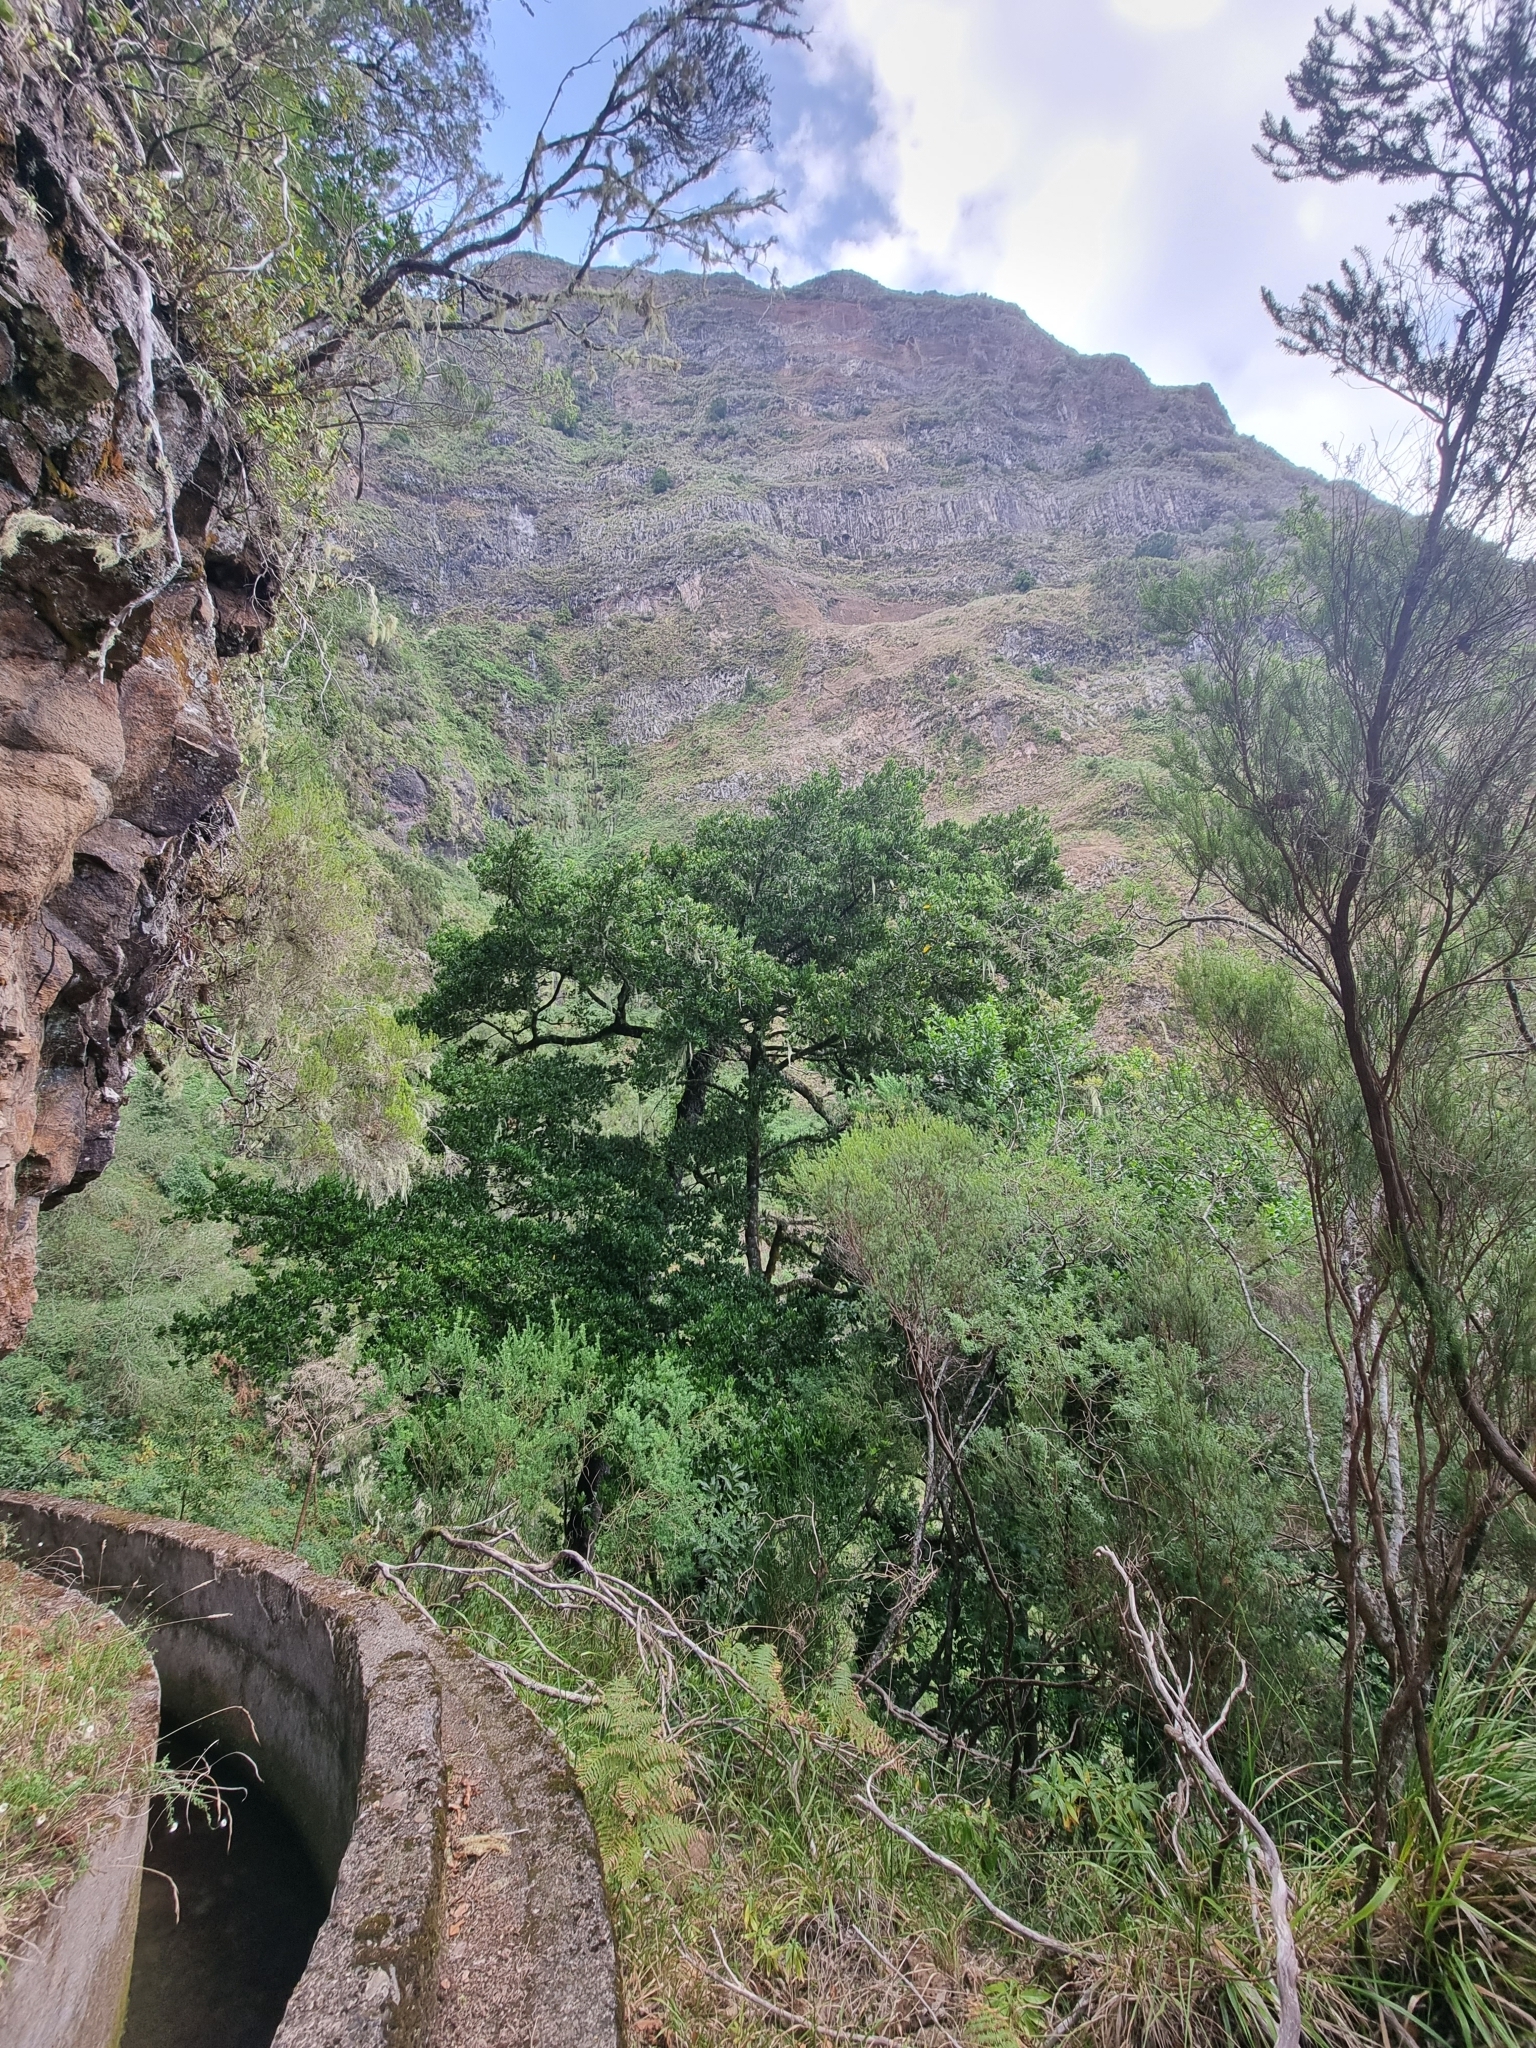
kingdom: Plantae
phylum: Tracheophyta
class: Magnoliopsida
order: Laurales
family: Lauraceae
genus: Mespilodaphne
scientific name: Mespilodaphne foetens
